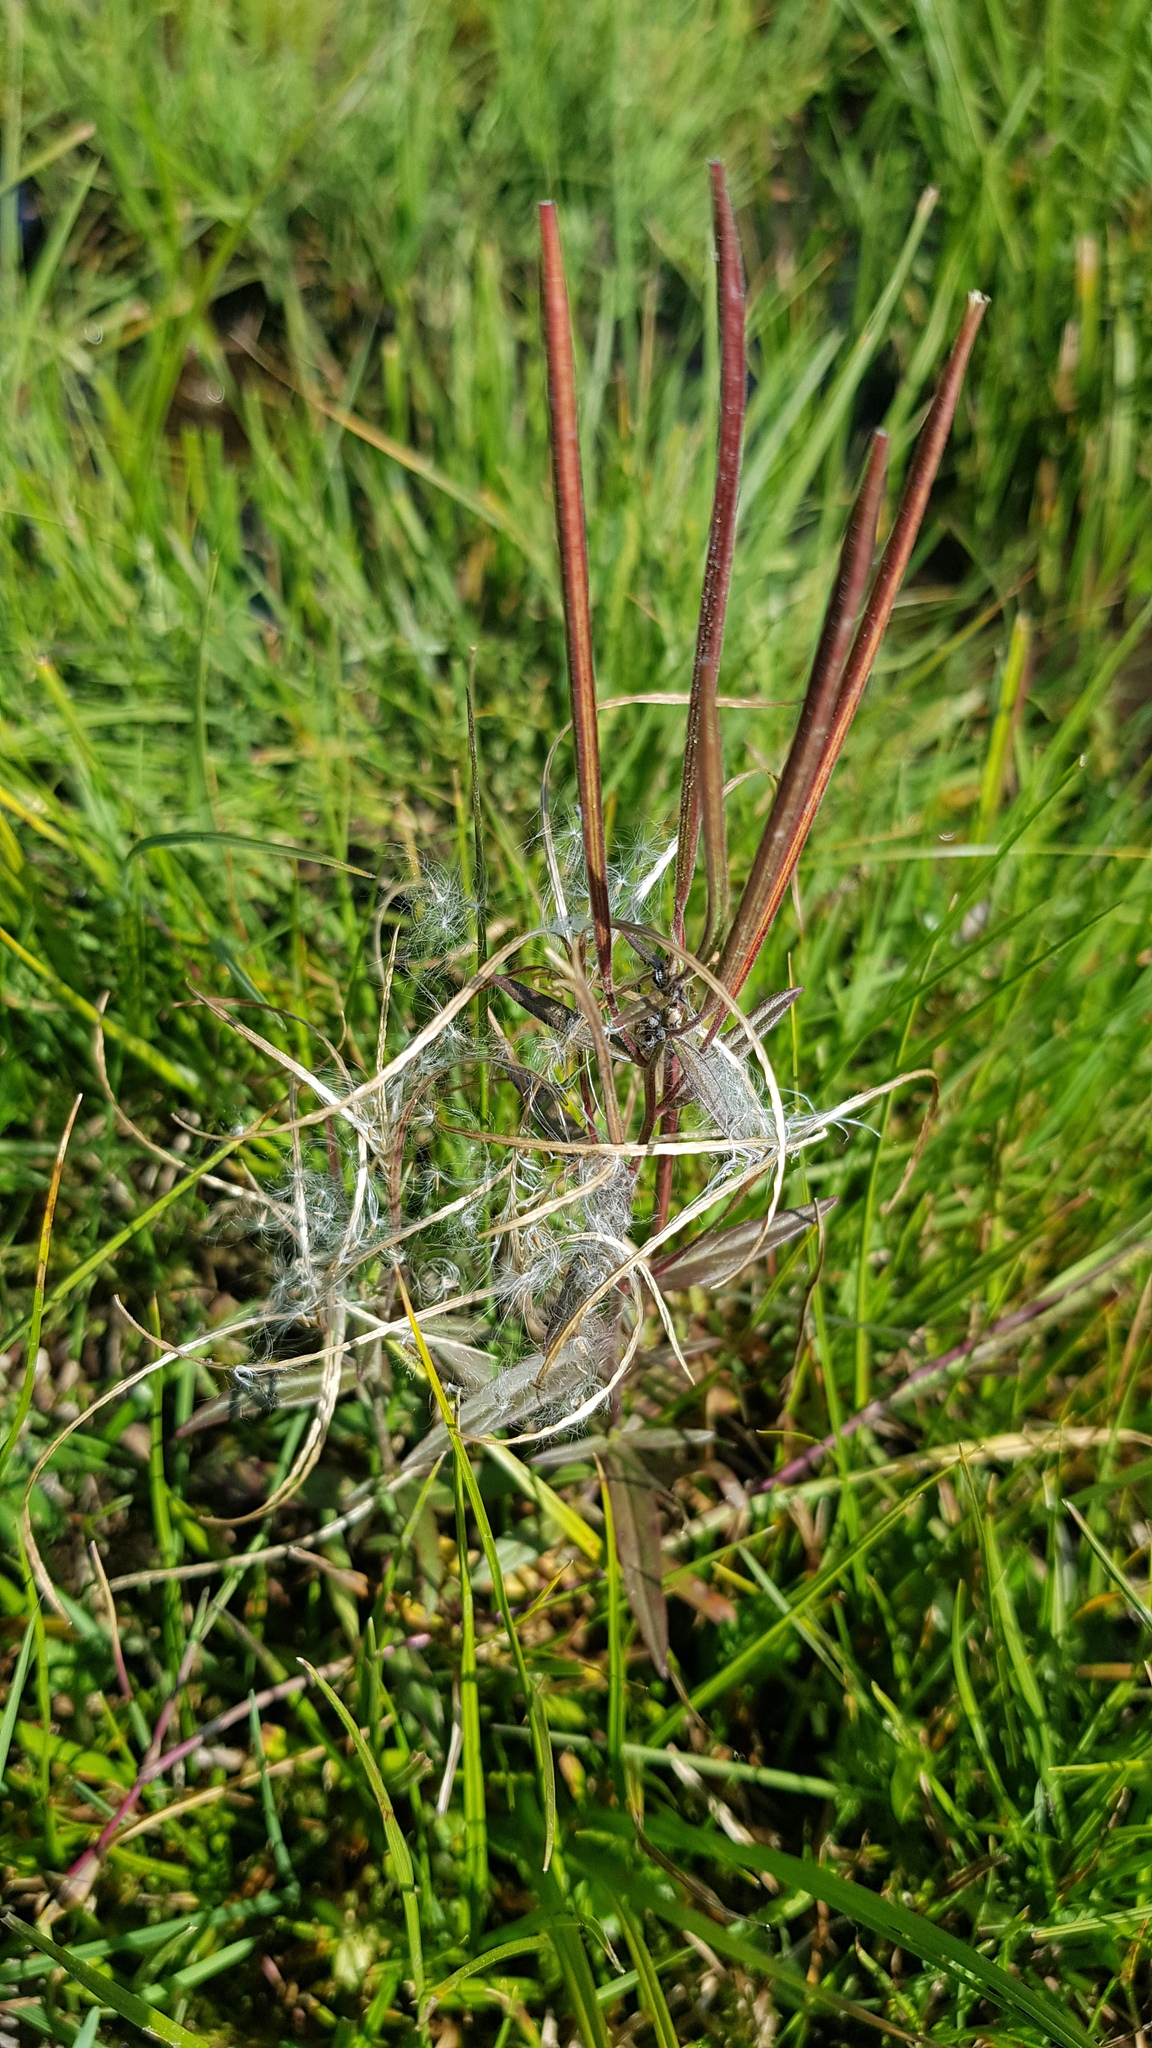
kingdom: Plantae
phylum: Tracheophyta
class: Magnoliopsida
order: Myrtales
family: Onagraceae
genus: Epilobium
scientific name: Epilobium palustre
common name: Marsh willowherb
